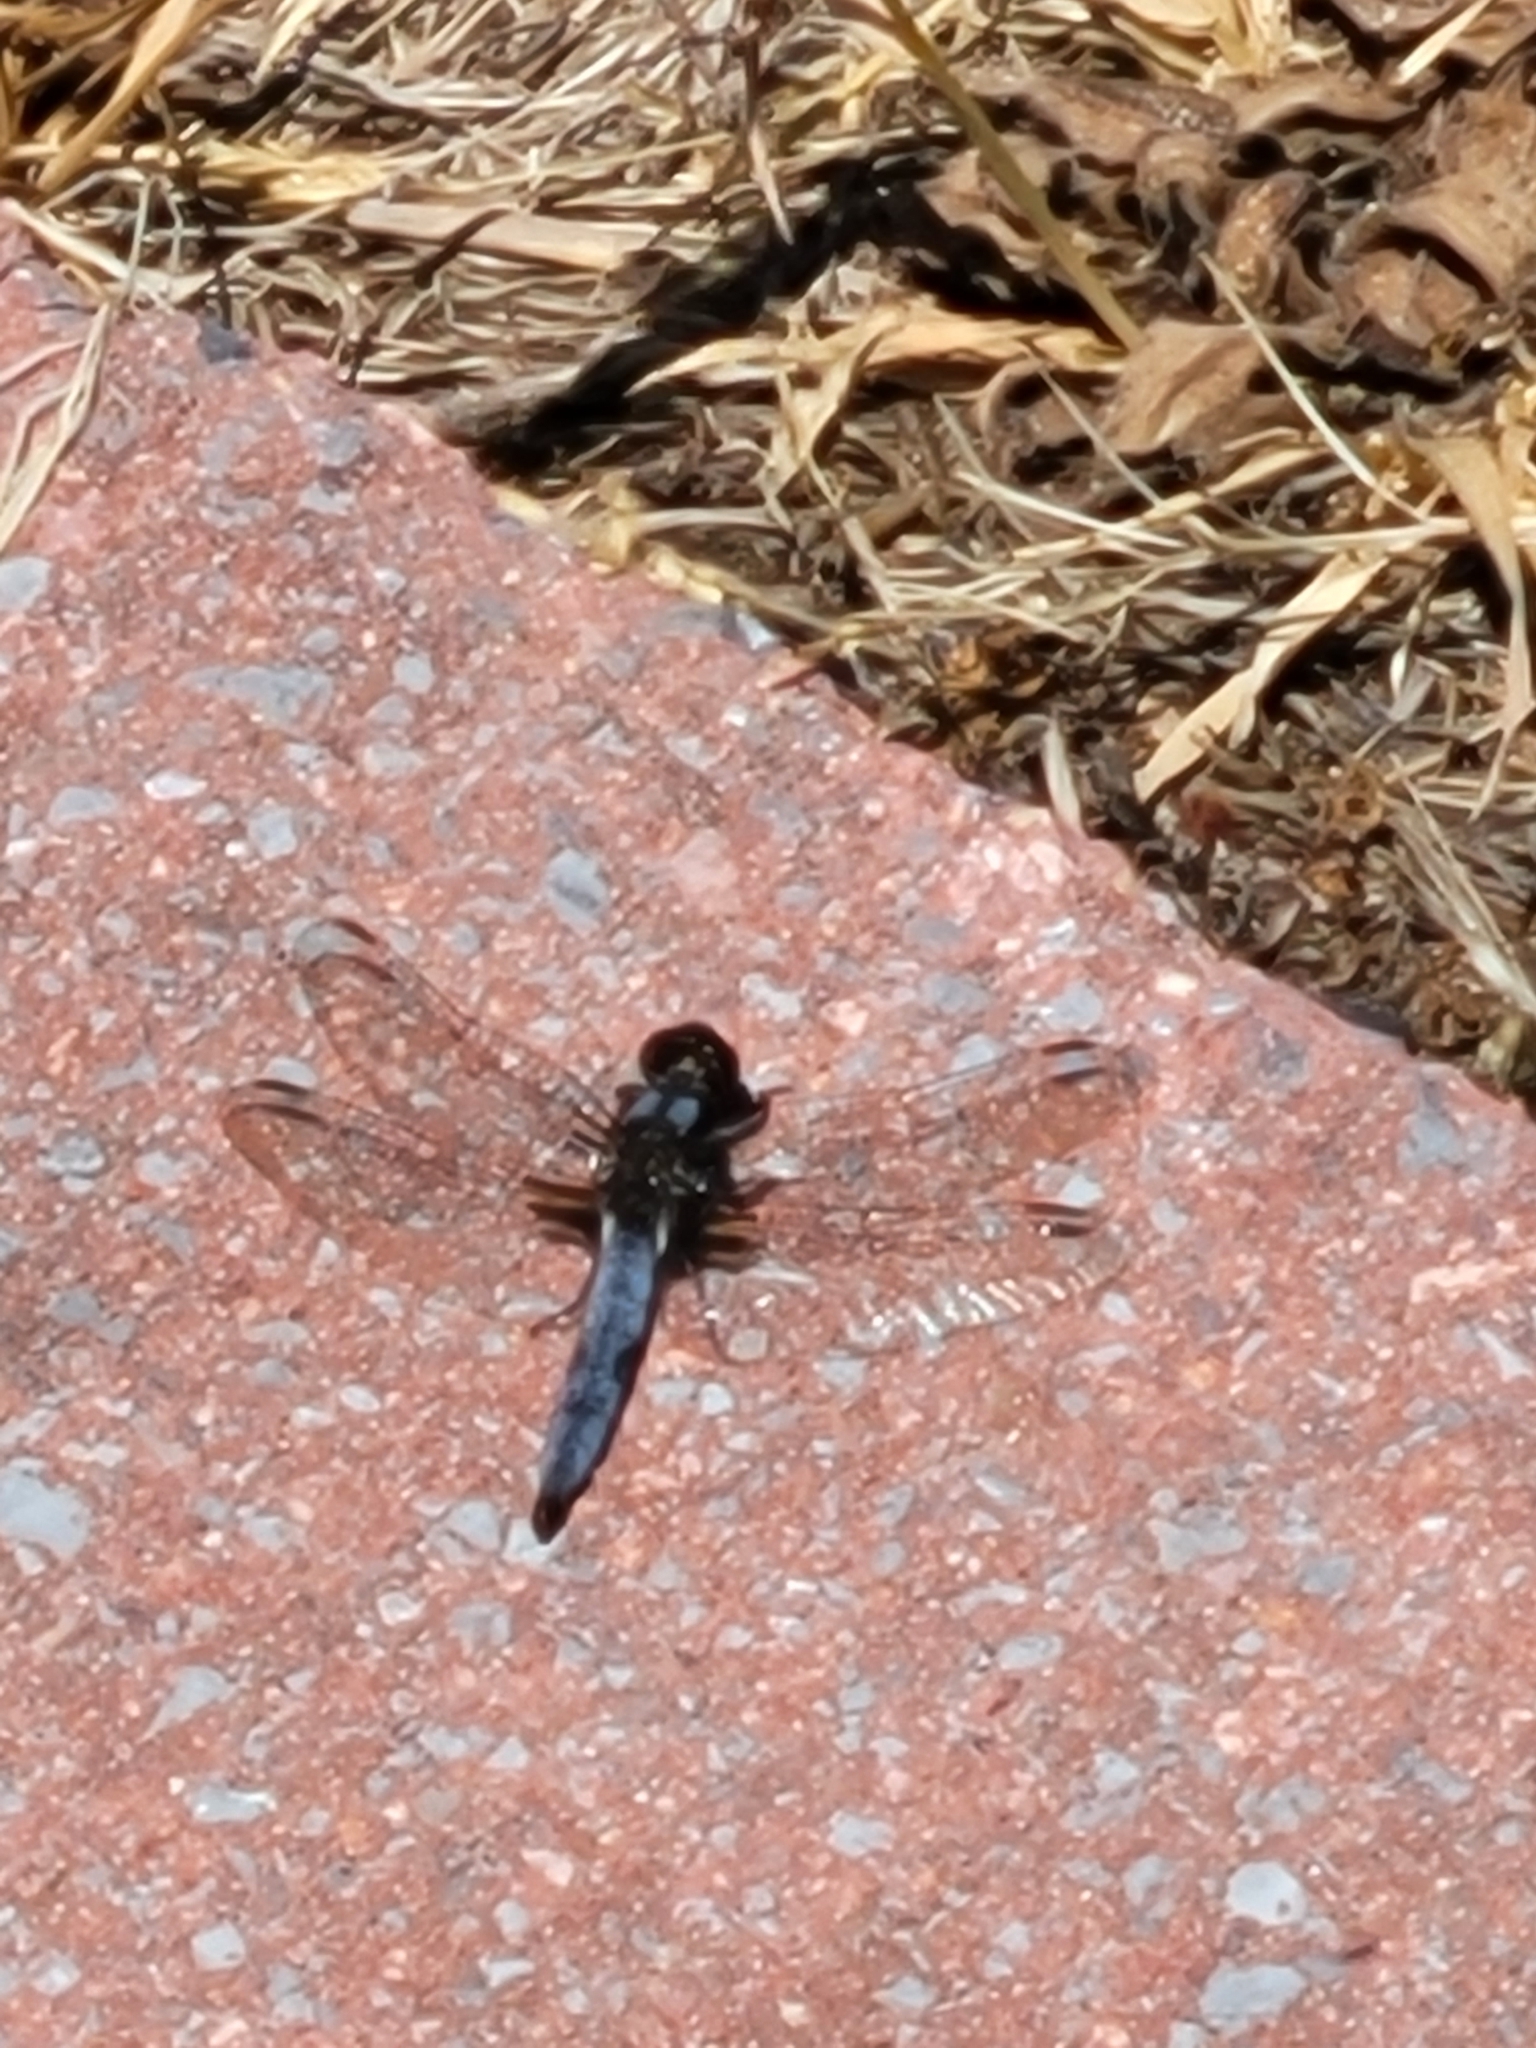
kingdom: Animalia
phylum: Arthropoda
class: Insecta
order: Odonata
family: Libellulidae
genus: Ladona
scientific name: Ladona deplanata
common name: Blue corporal
